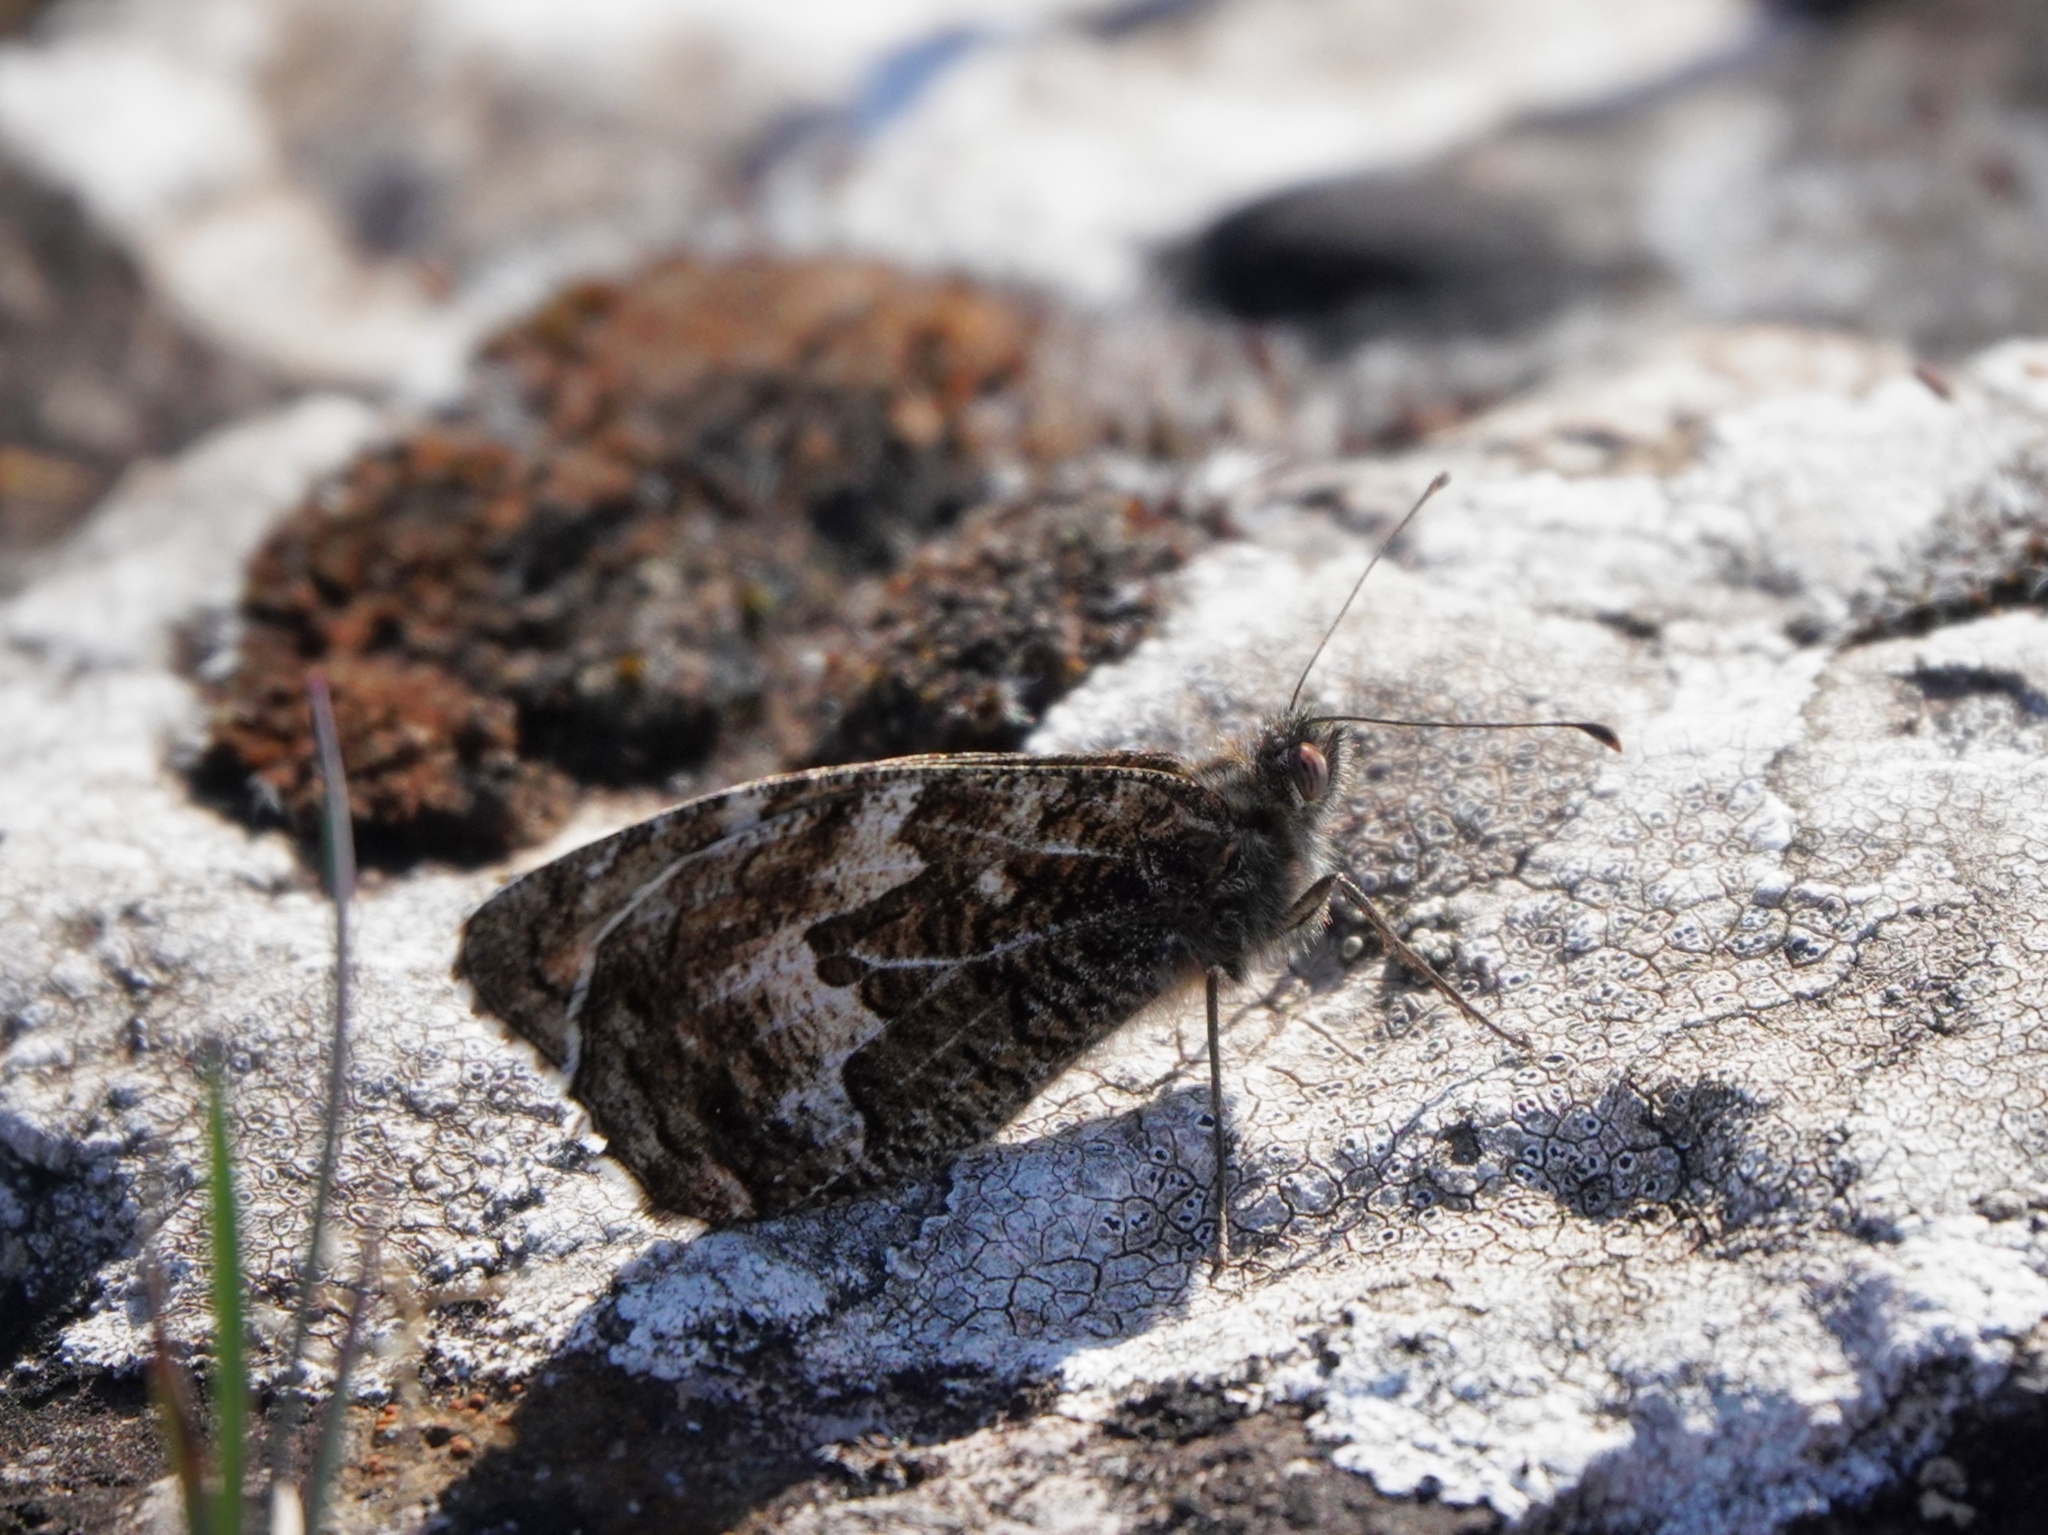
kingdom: Animalia
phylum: Arthropoda
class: Insecta
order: Lepidoptera
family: Nymphalidae
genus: Hipparchia
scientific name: Hipparchia semele
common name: Grayling
